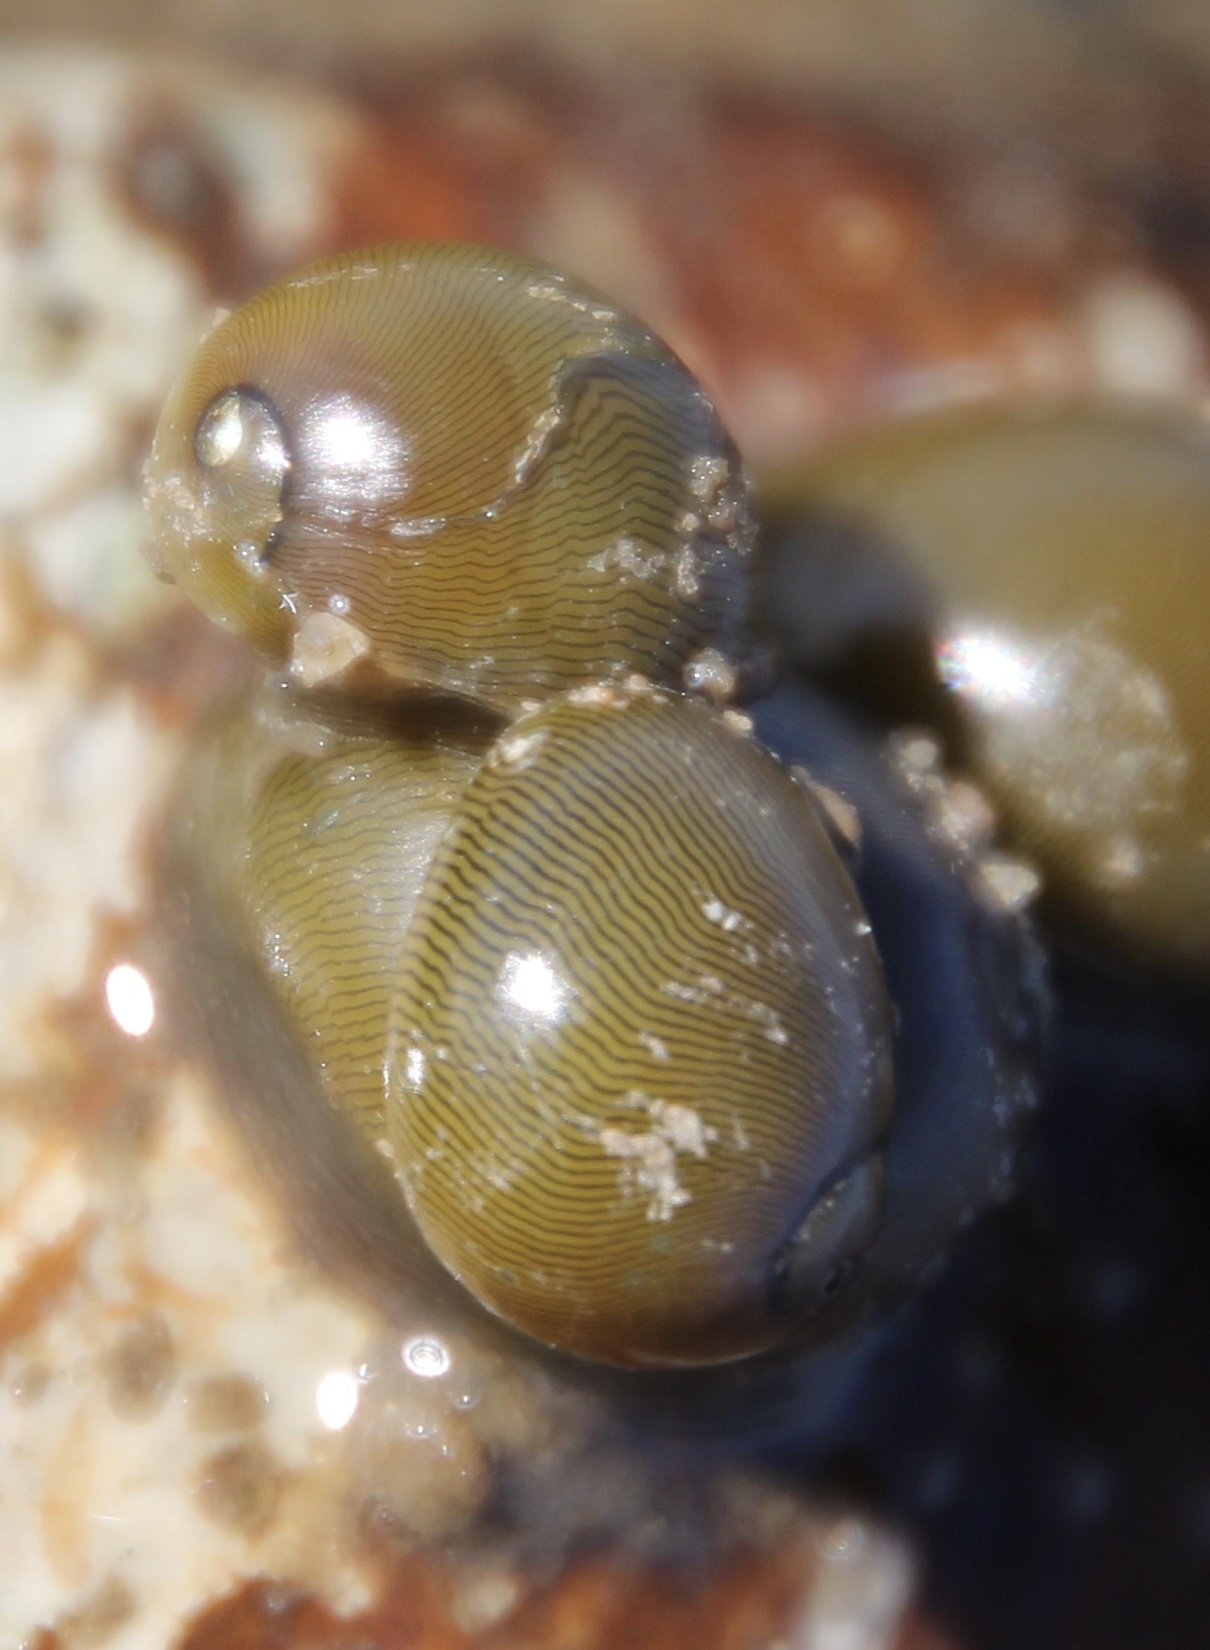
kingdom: Animalia
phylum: Mollusca
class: Gastropoda
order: Cycloneritida
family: Neritidae
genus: Vitta
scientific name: Vitta usnea
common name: Olive nerite
